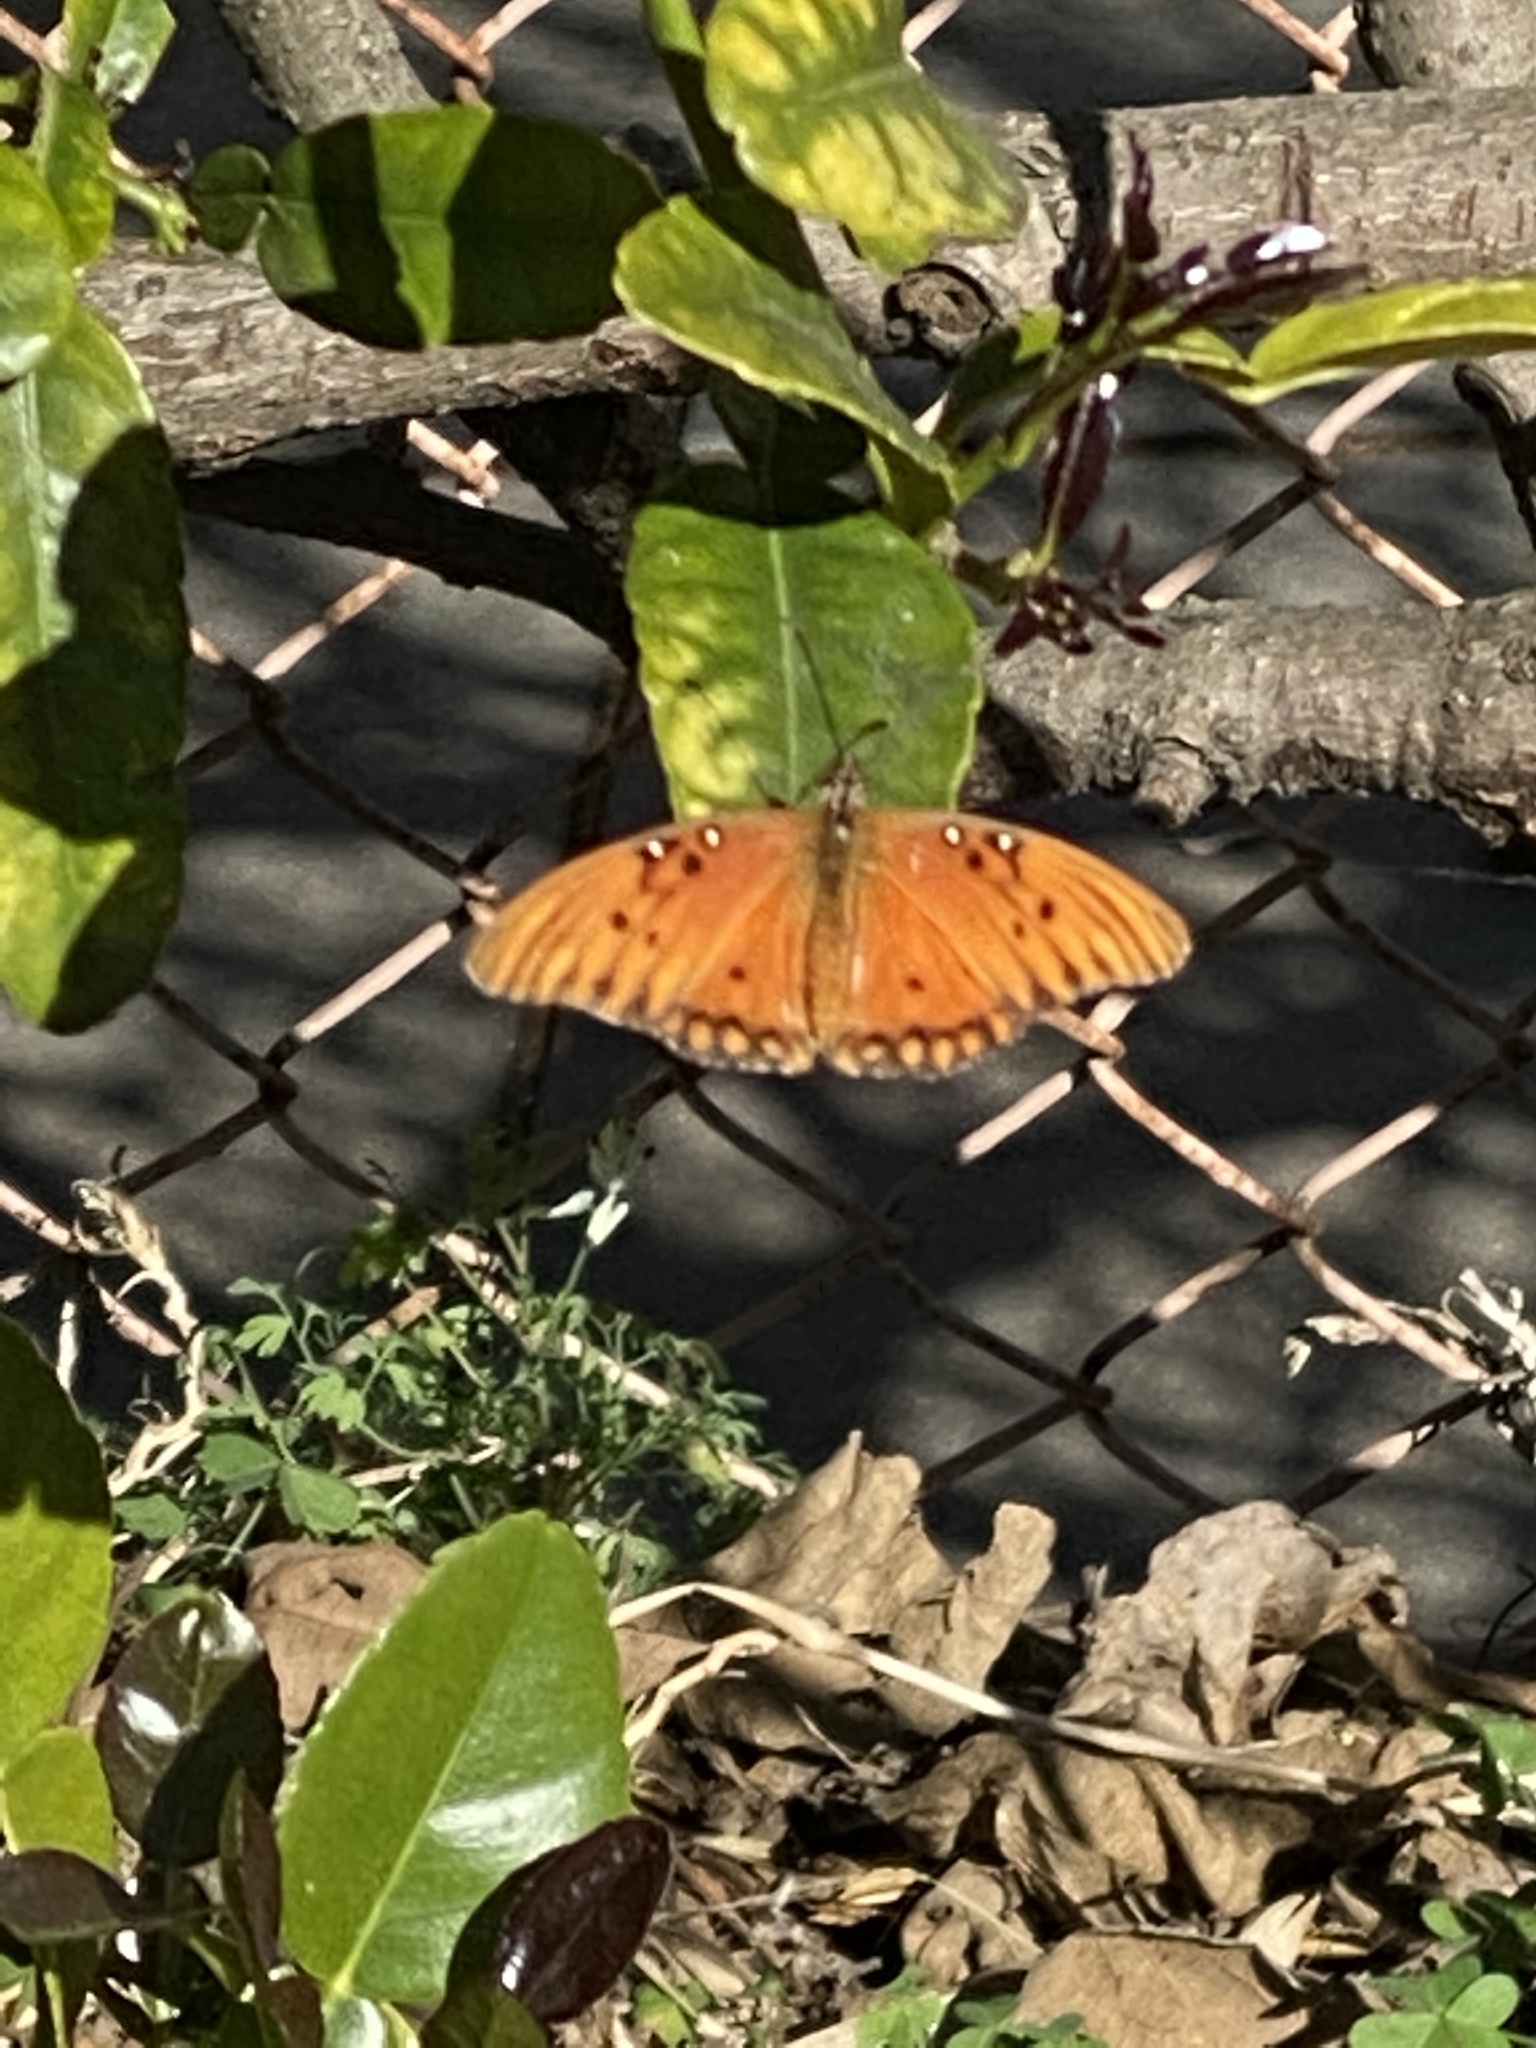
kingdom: Animalia
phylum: Arthropoda
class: Insecta
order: Lepidoptera
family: Nymphalidae
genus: Dione
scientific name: Dione vanillae
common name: Gulf fritillary
